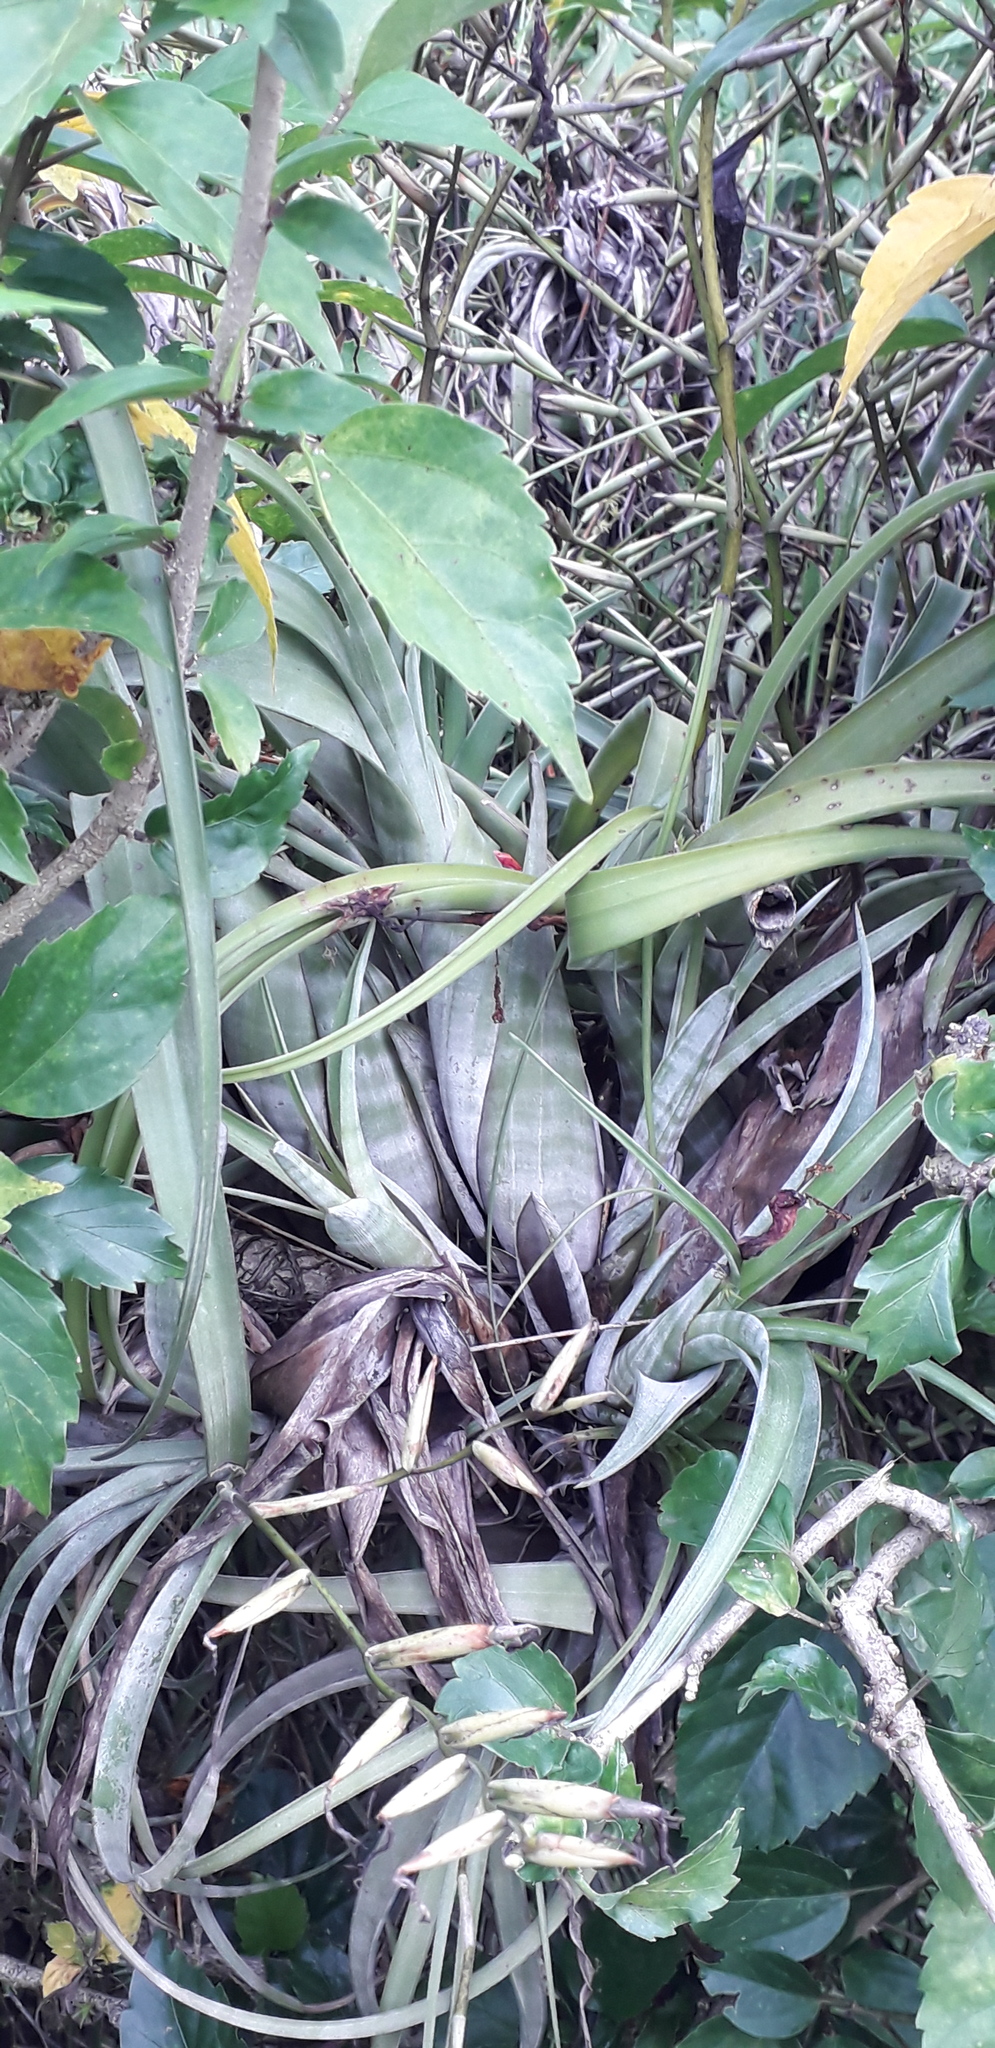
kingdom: Plantae
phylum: Tracheophyta
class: Liliopsida
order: Poales
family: Bromeliaceae
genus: Tillandsia
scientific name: Tillandsia flexuosa
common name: Banded airplant
